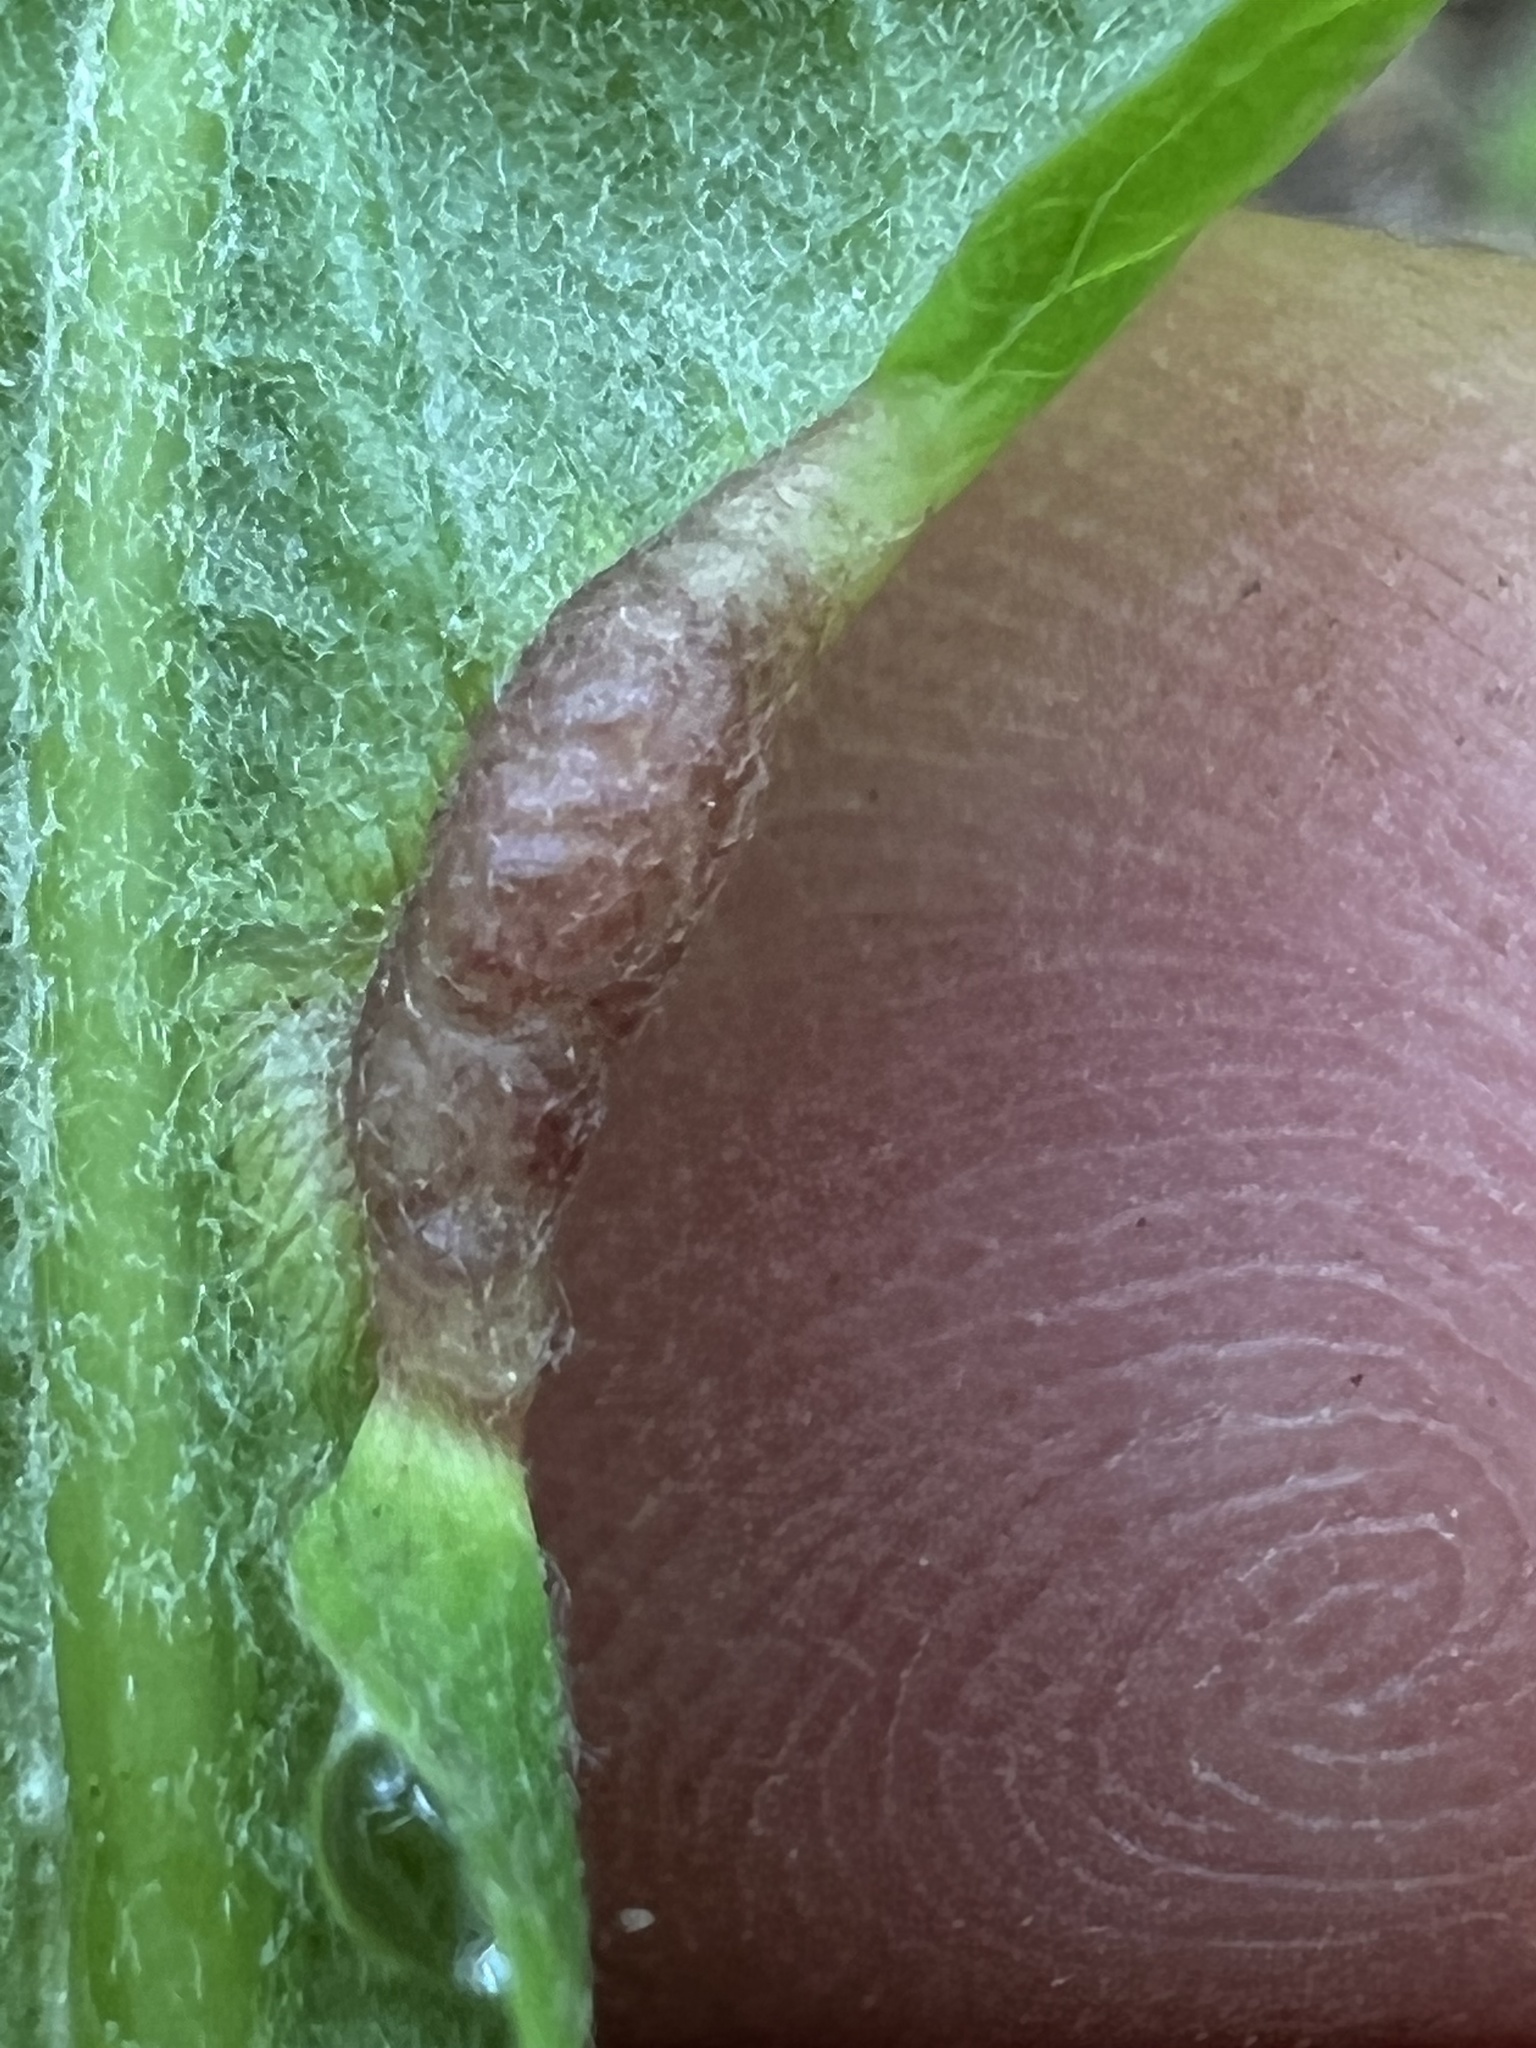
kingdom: Animalia
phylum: Arthropoda
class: Insecta
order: Diptera
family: Cecidomyiidae
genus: Contarinia
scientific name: Contarinia negundinis
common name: Boxelder budgall midge
